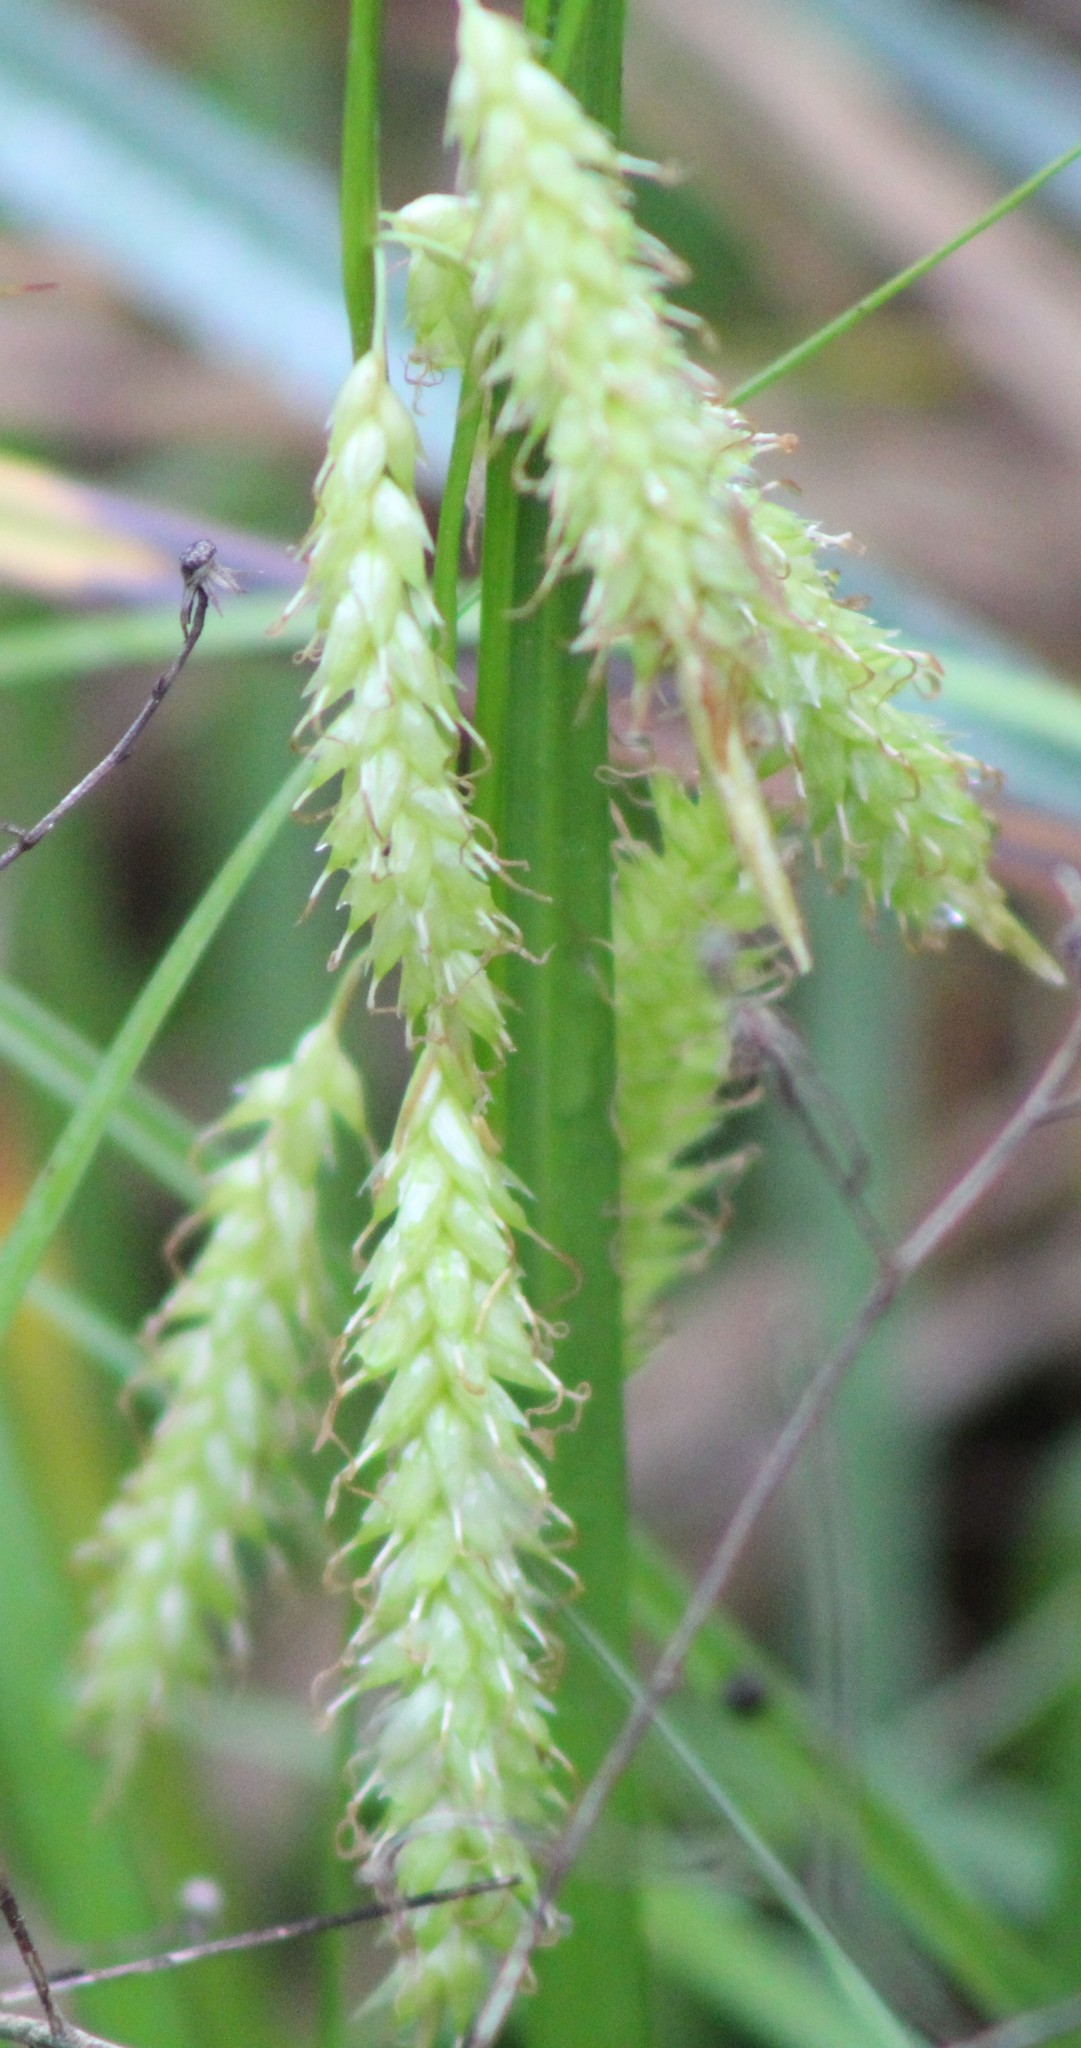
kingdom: Plantae
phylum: Tracheophyta
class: Liliopsida
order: Poales
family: Cyperaceae
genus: Carex
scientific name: Carex cherokeensis
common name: Cherokee sedge
